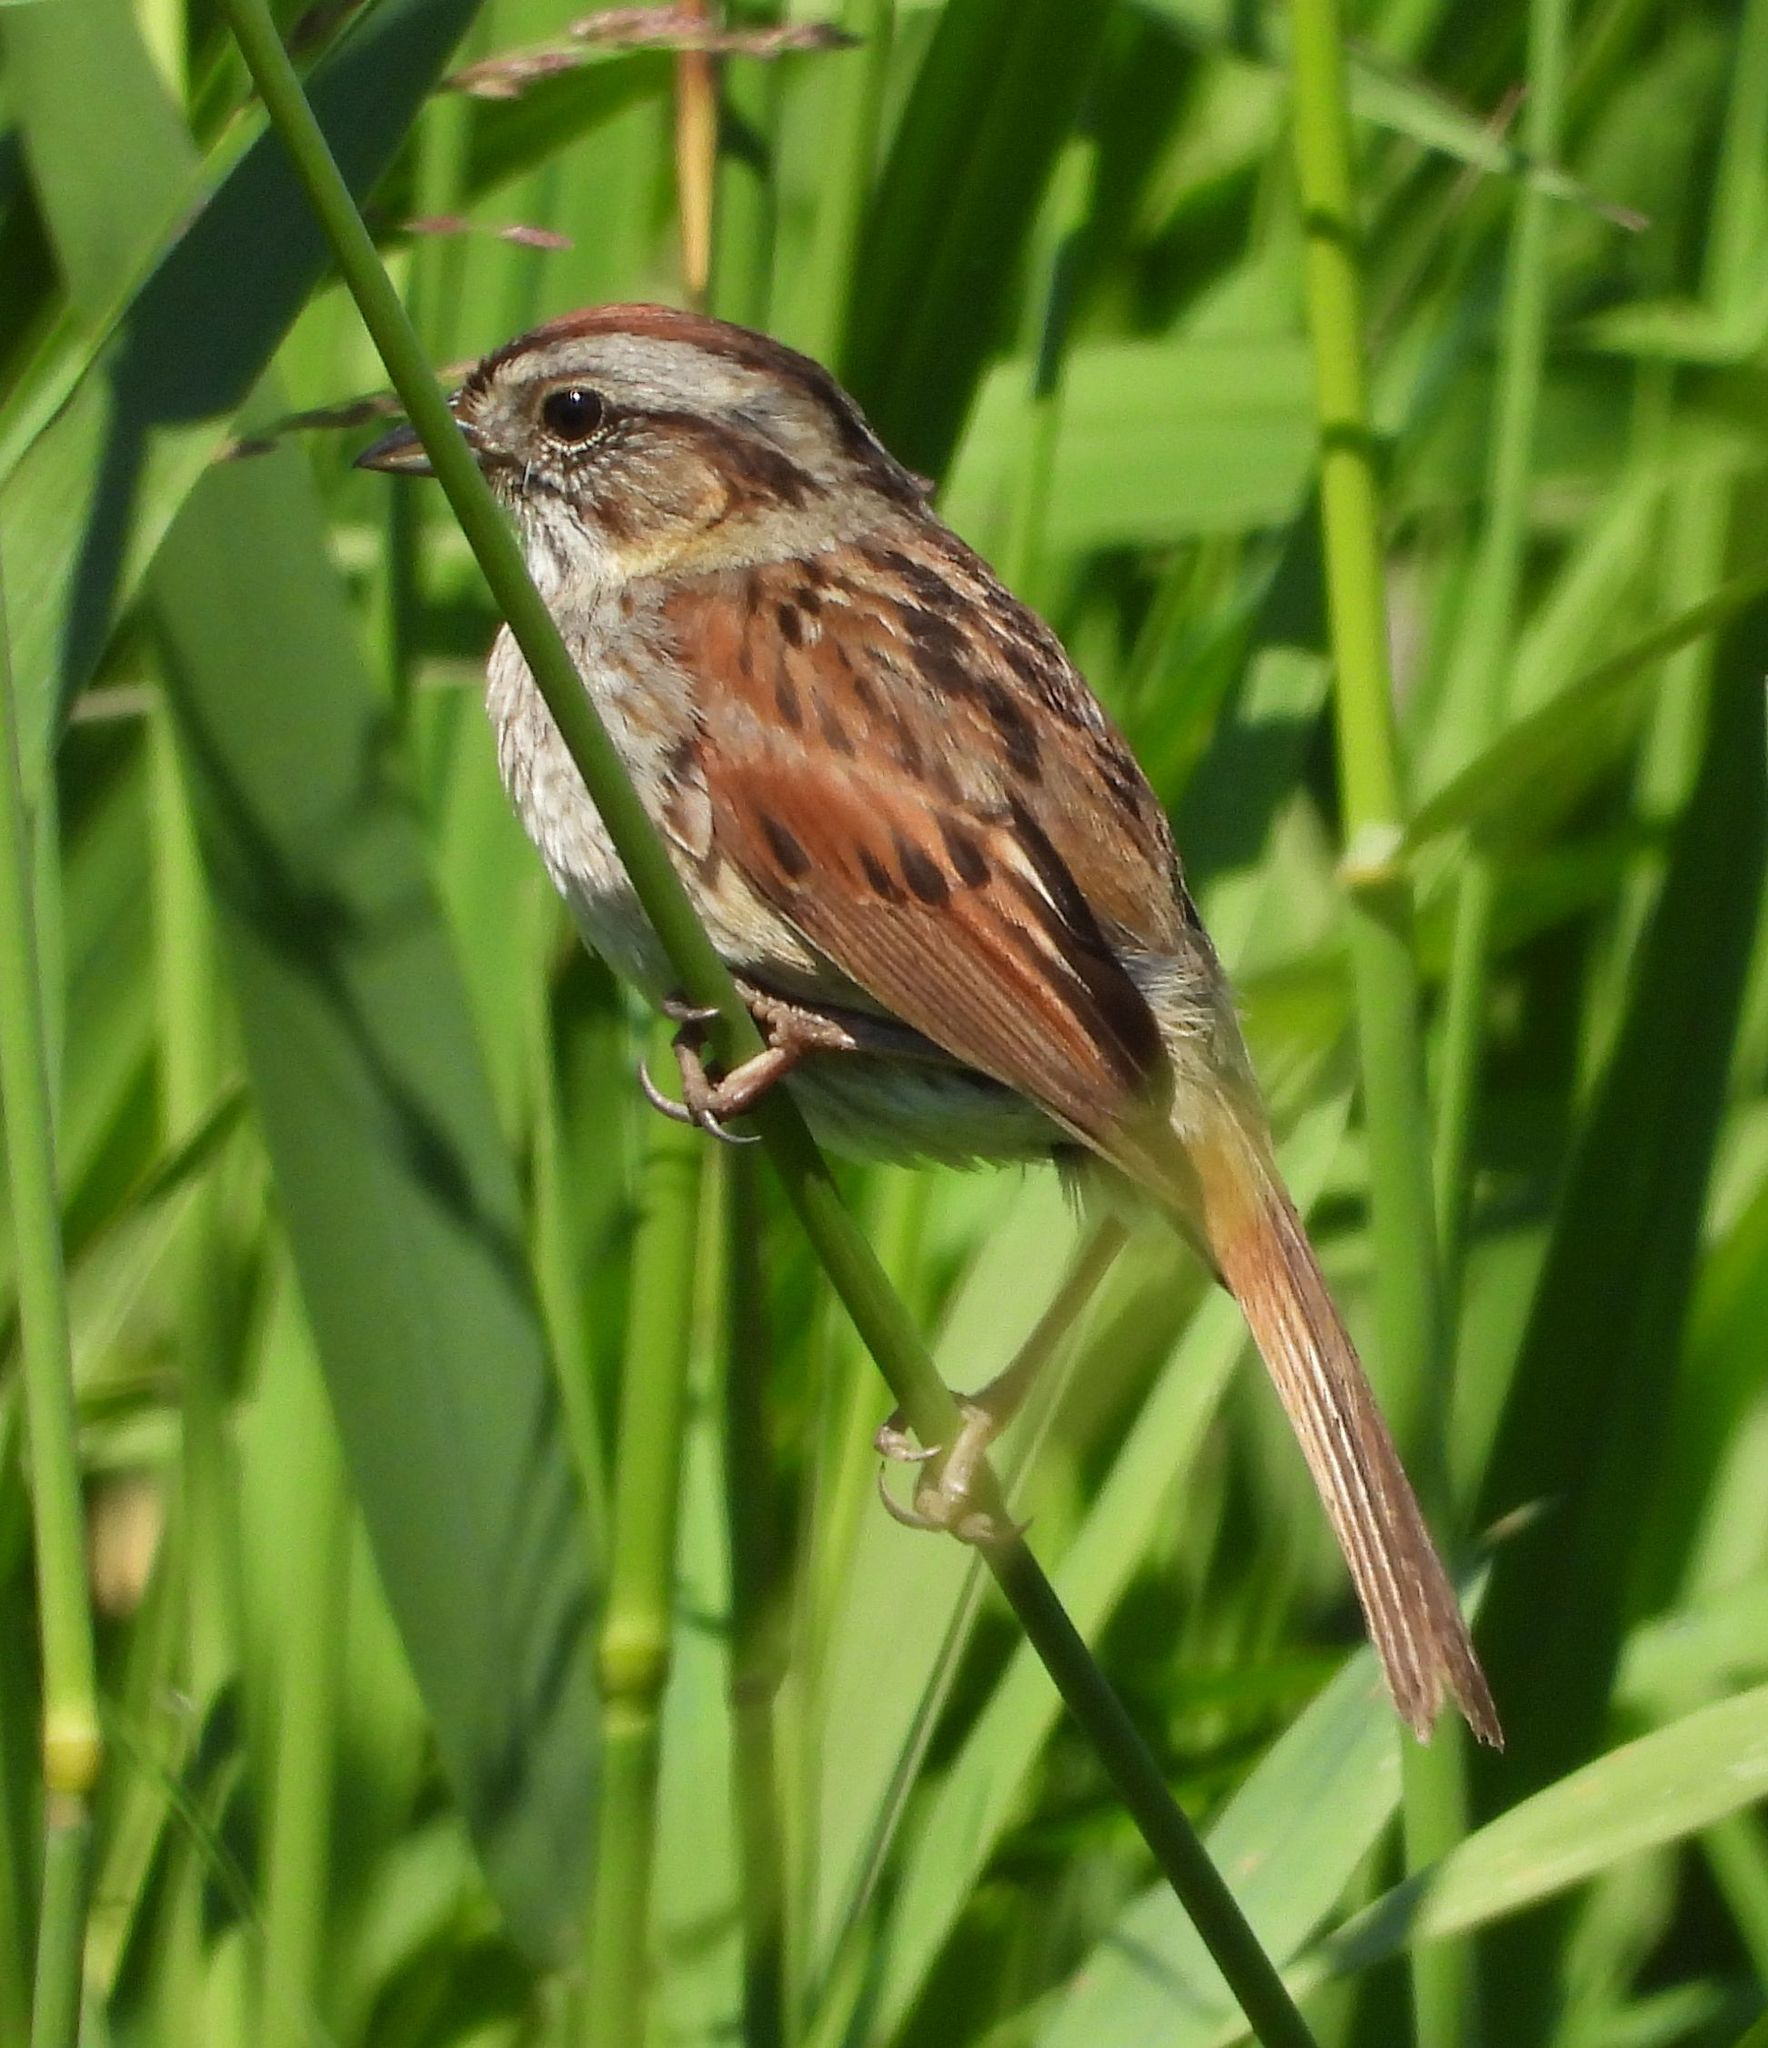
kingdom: Animalia
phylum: Chordata
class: Aves
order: Passeriformes
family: Passerellidae
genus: Melospiza
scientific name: Melospiza georgiana
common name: Swamp sparrow
